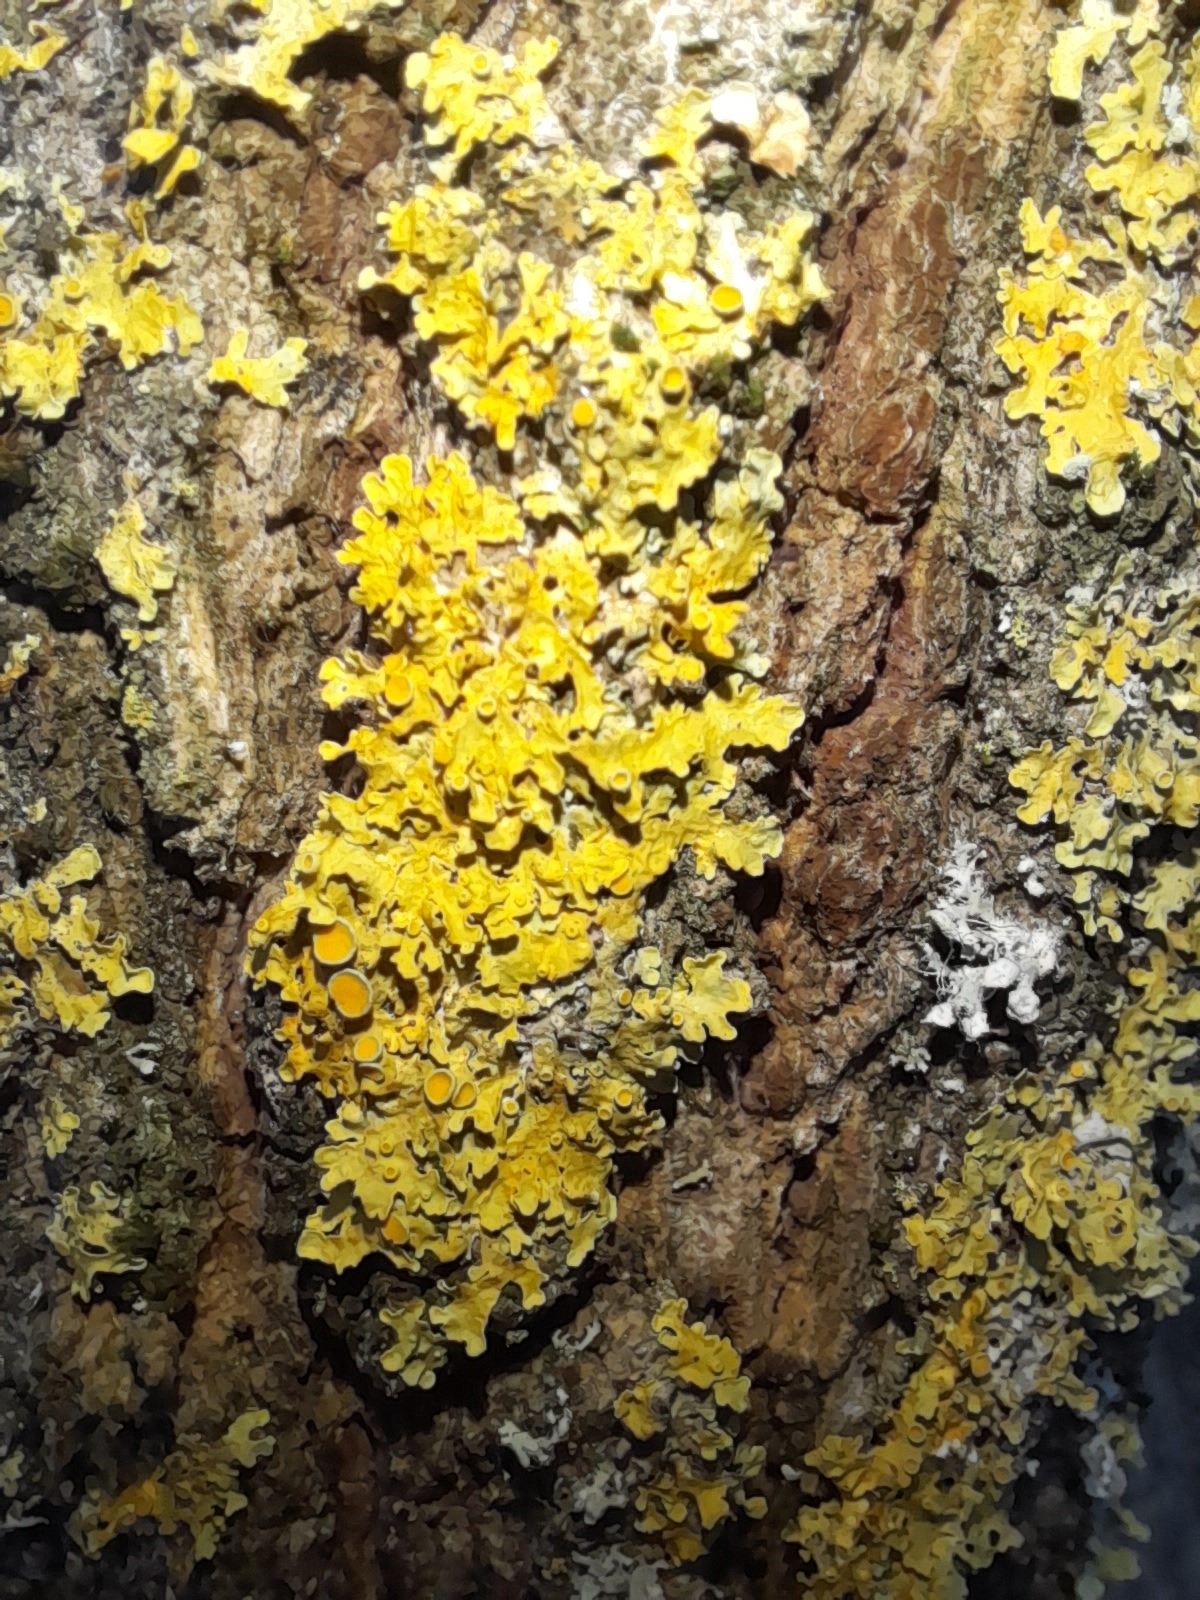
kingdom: Fungi
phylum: Ascomycota
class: Lecanoromycetes
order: Teloschistales
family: Teloschistaceae
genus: Xanthoria
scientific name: Xanthoria parietina
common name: Common orange lichen
